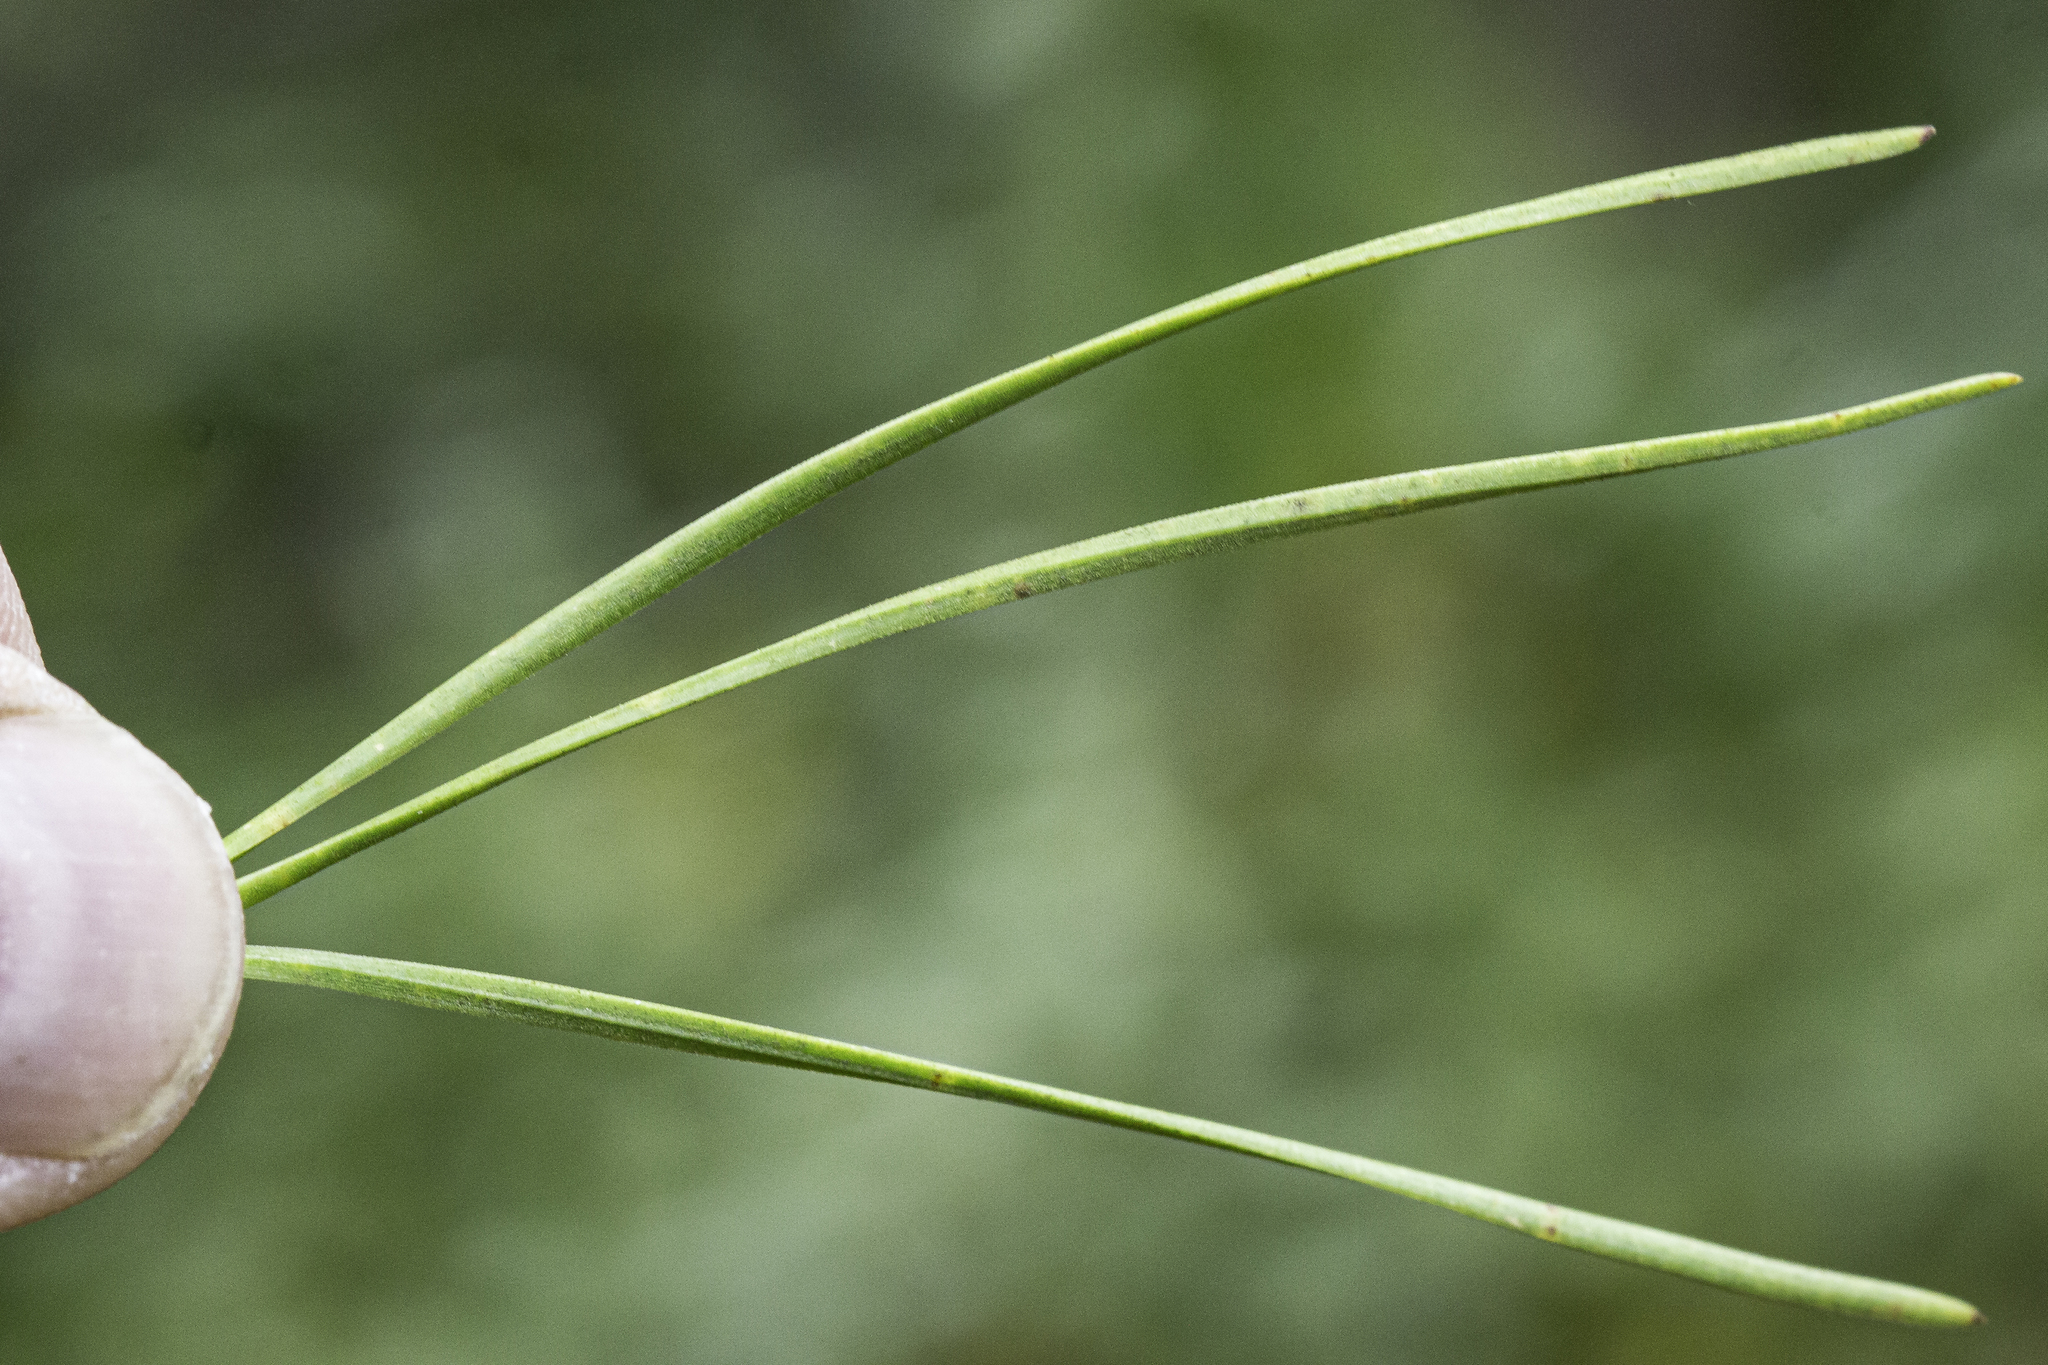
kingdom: Plantae
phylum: Tracheophyta
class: Pinopsida
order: Pinales
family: Pinaceae
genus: Pinus
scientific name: Pinus rigida
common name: Pitch pine
